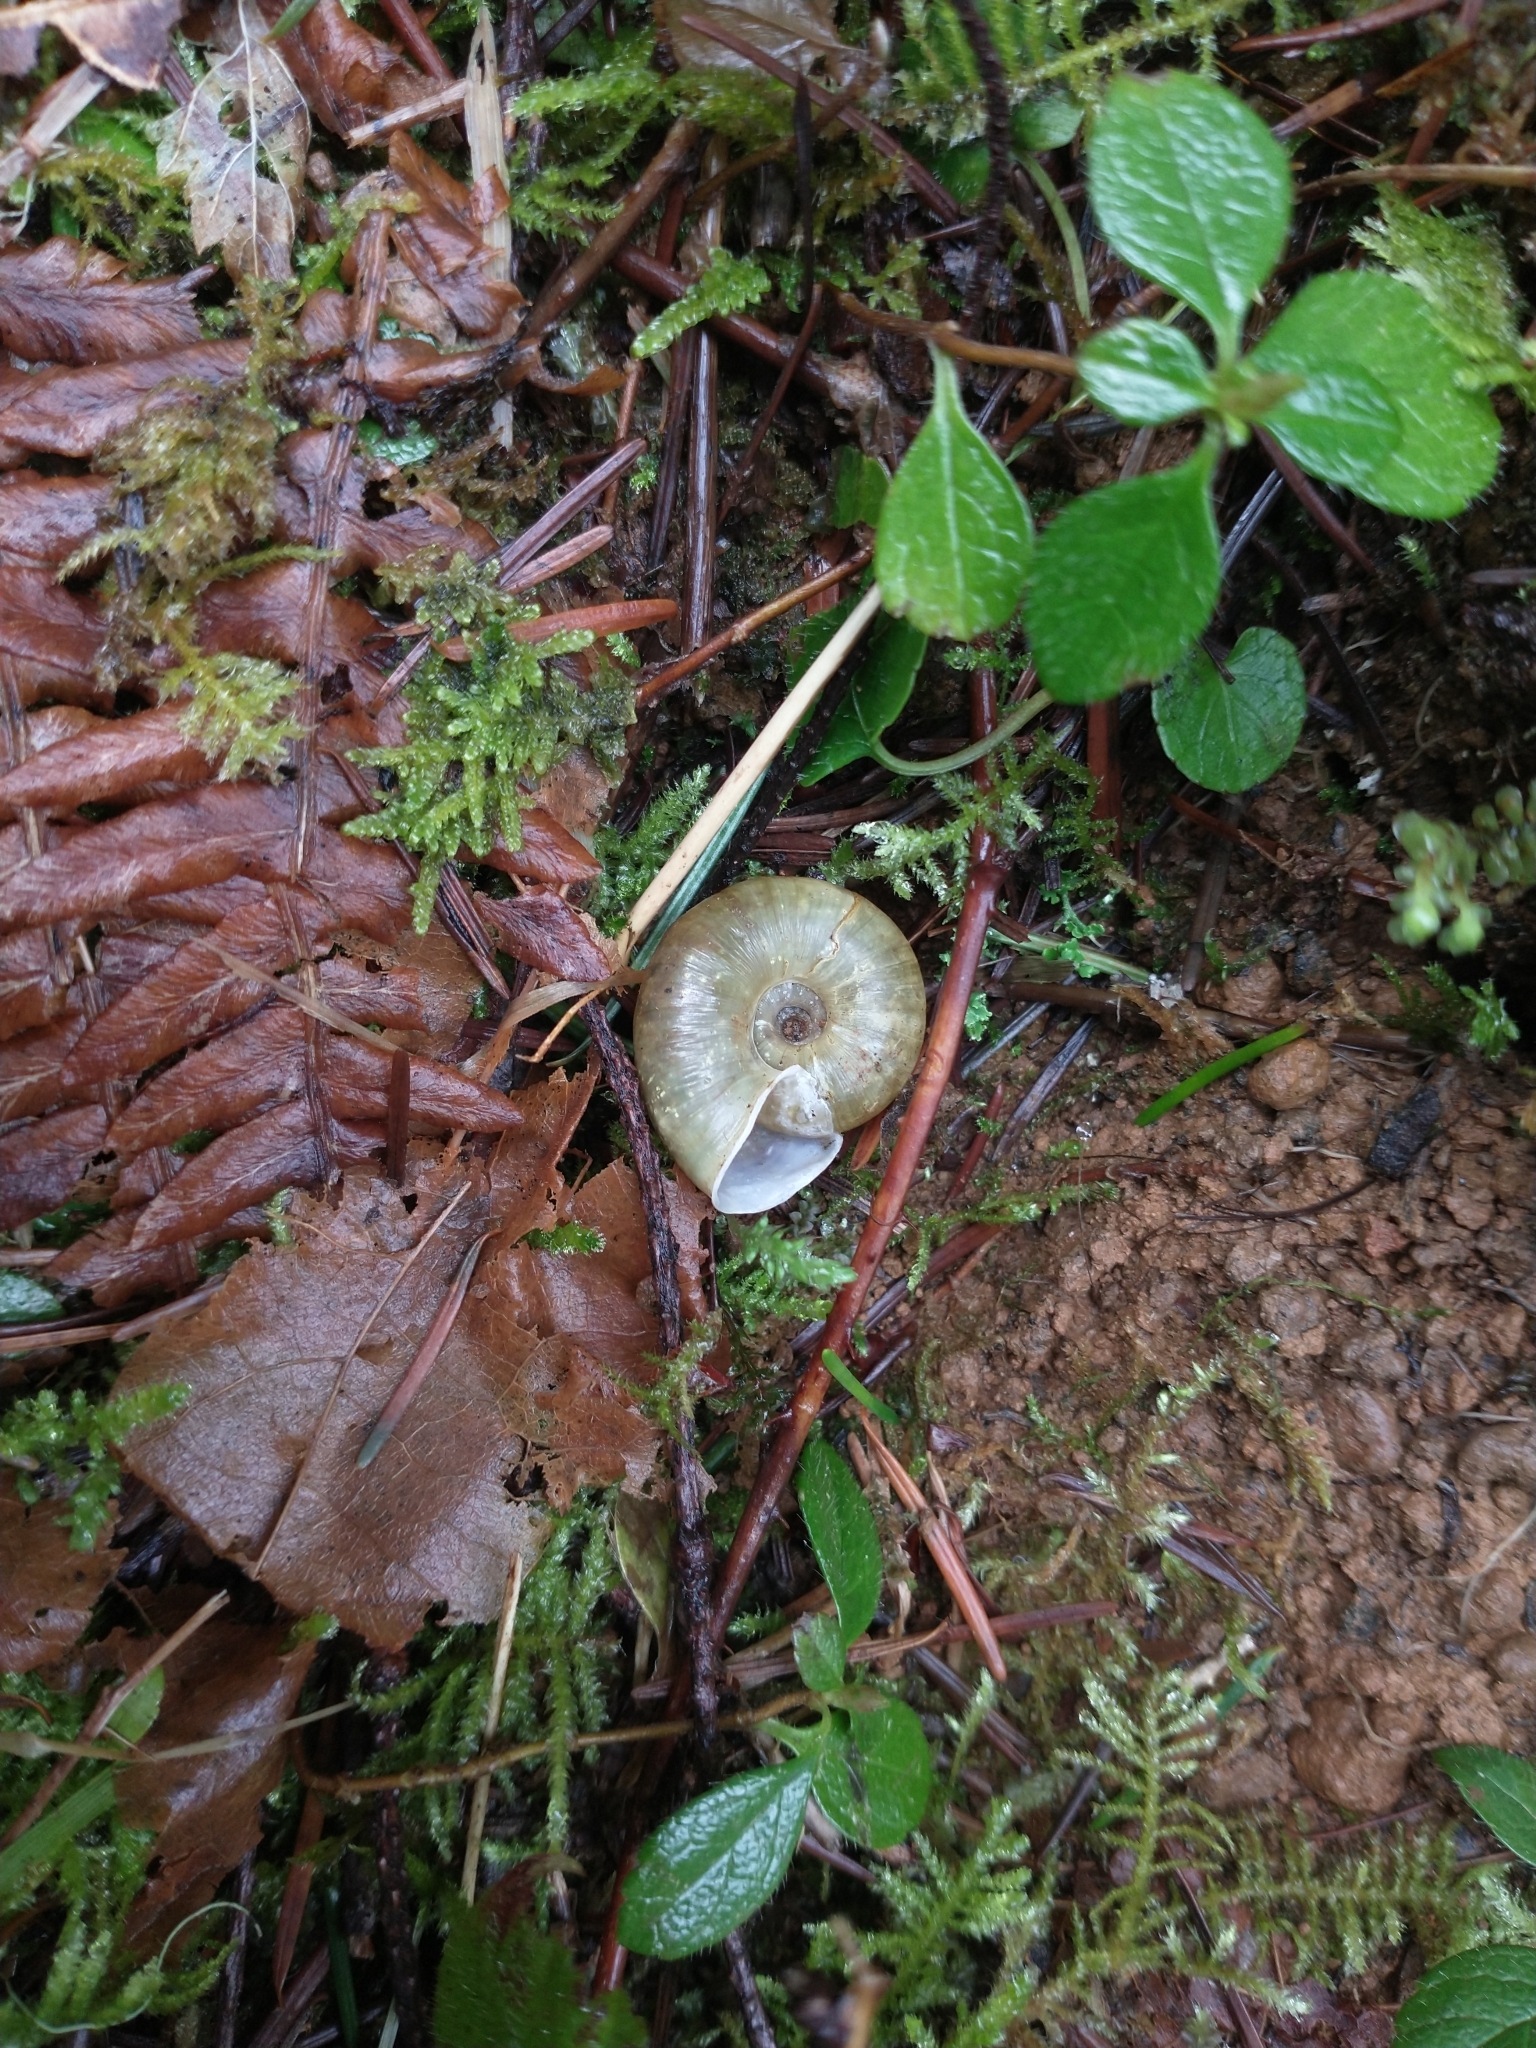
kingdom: Animalia
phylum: Mollusca
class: Gastropoda
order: Stylommatophora
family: Haplotrematidae
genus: Haplotrema
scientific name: Haplotrema vancouverense
